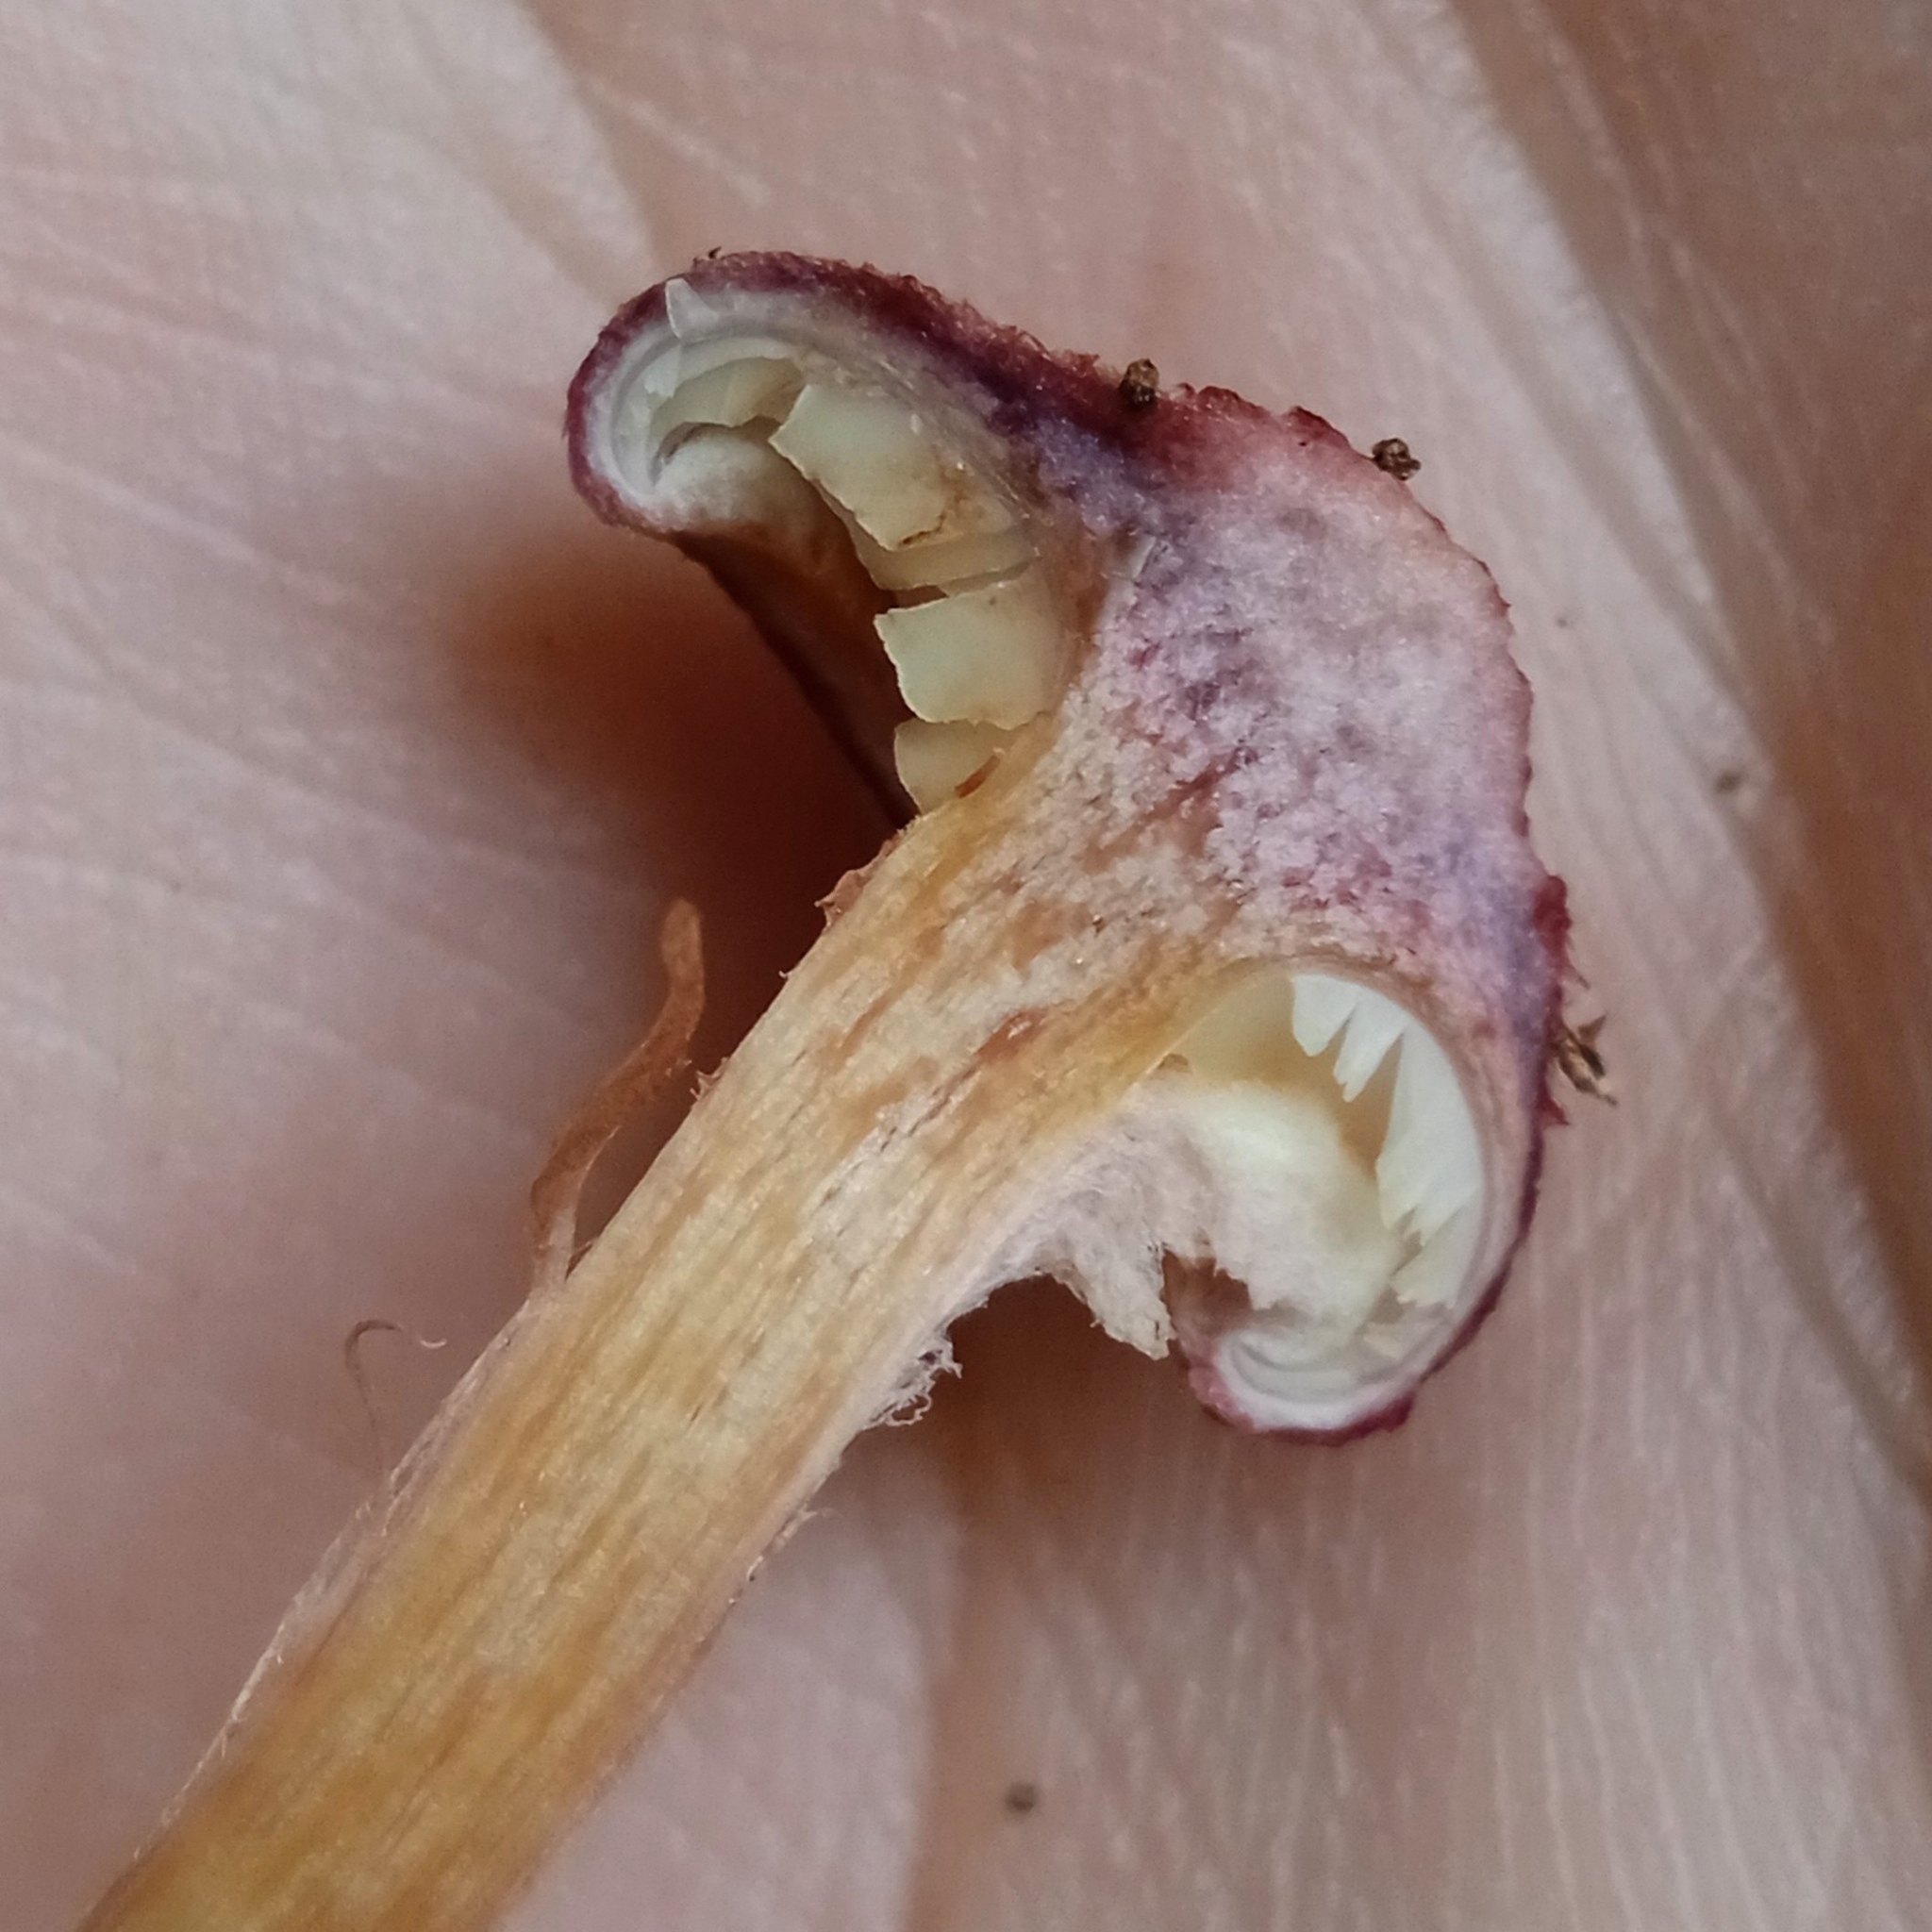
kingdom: Fungi
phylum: Basidiomycota
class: Agaricomycetes
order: Agaricales
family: Hymenogastraceae
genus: Gymnopilus
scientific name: Gymnopilus luteofolius
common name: Yellow-gilled gymnopilus
